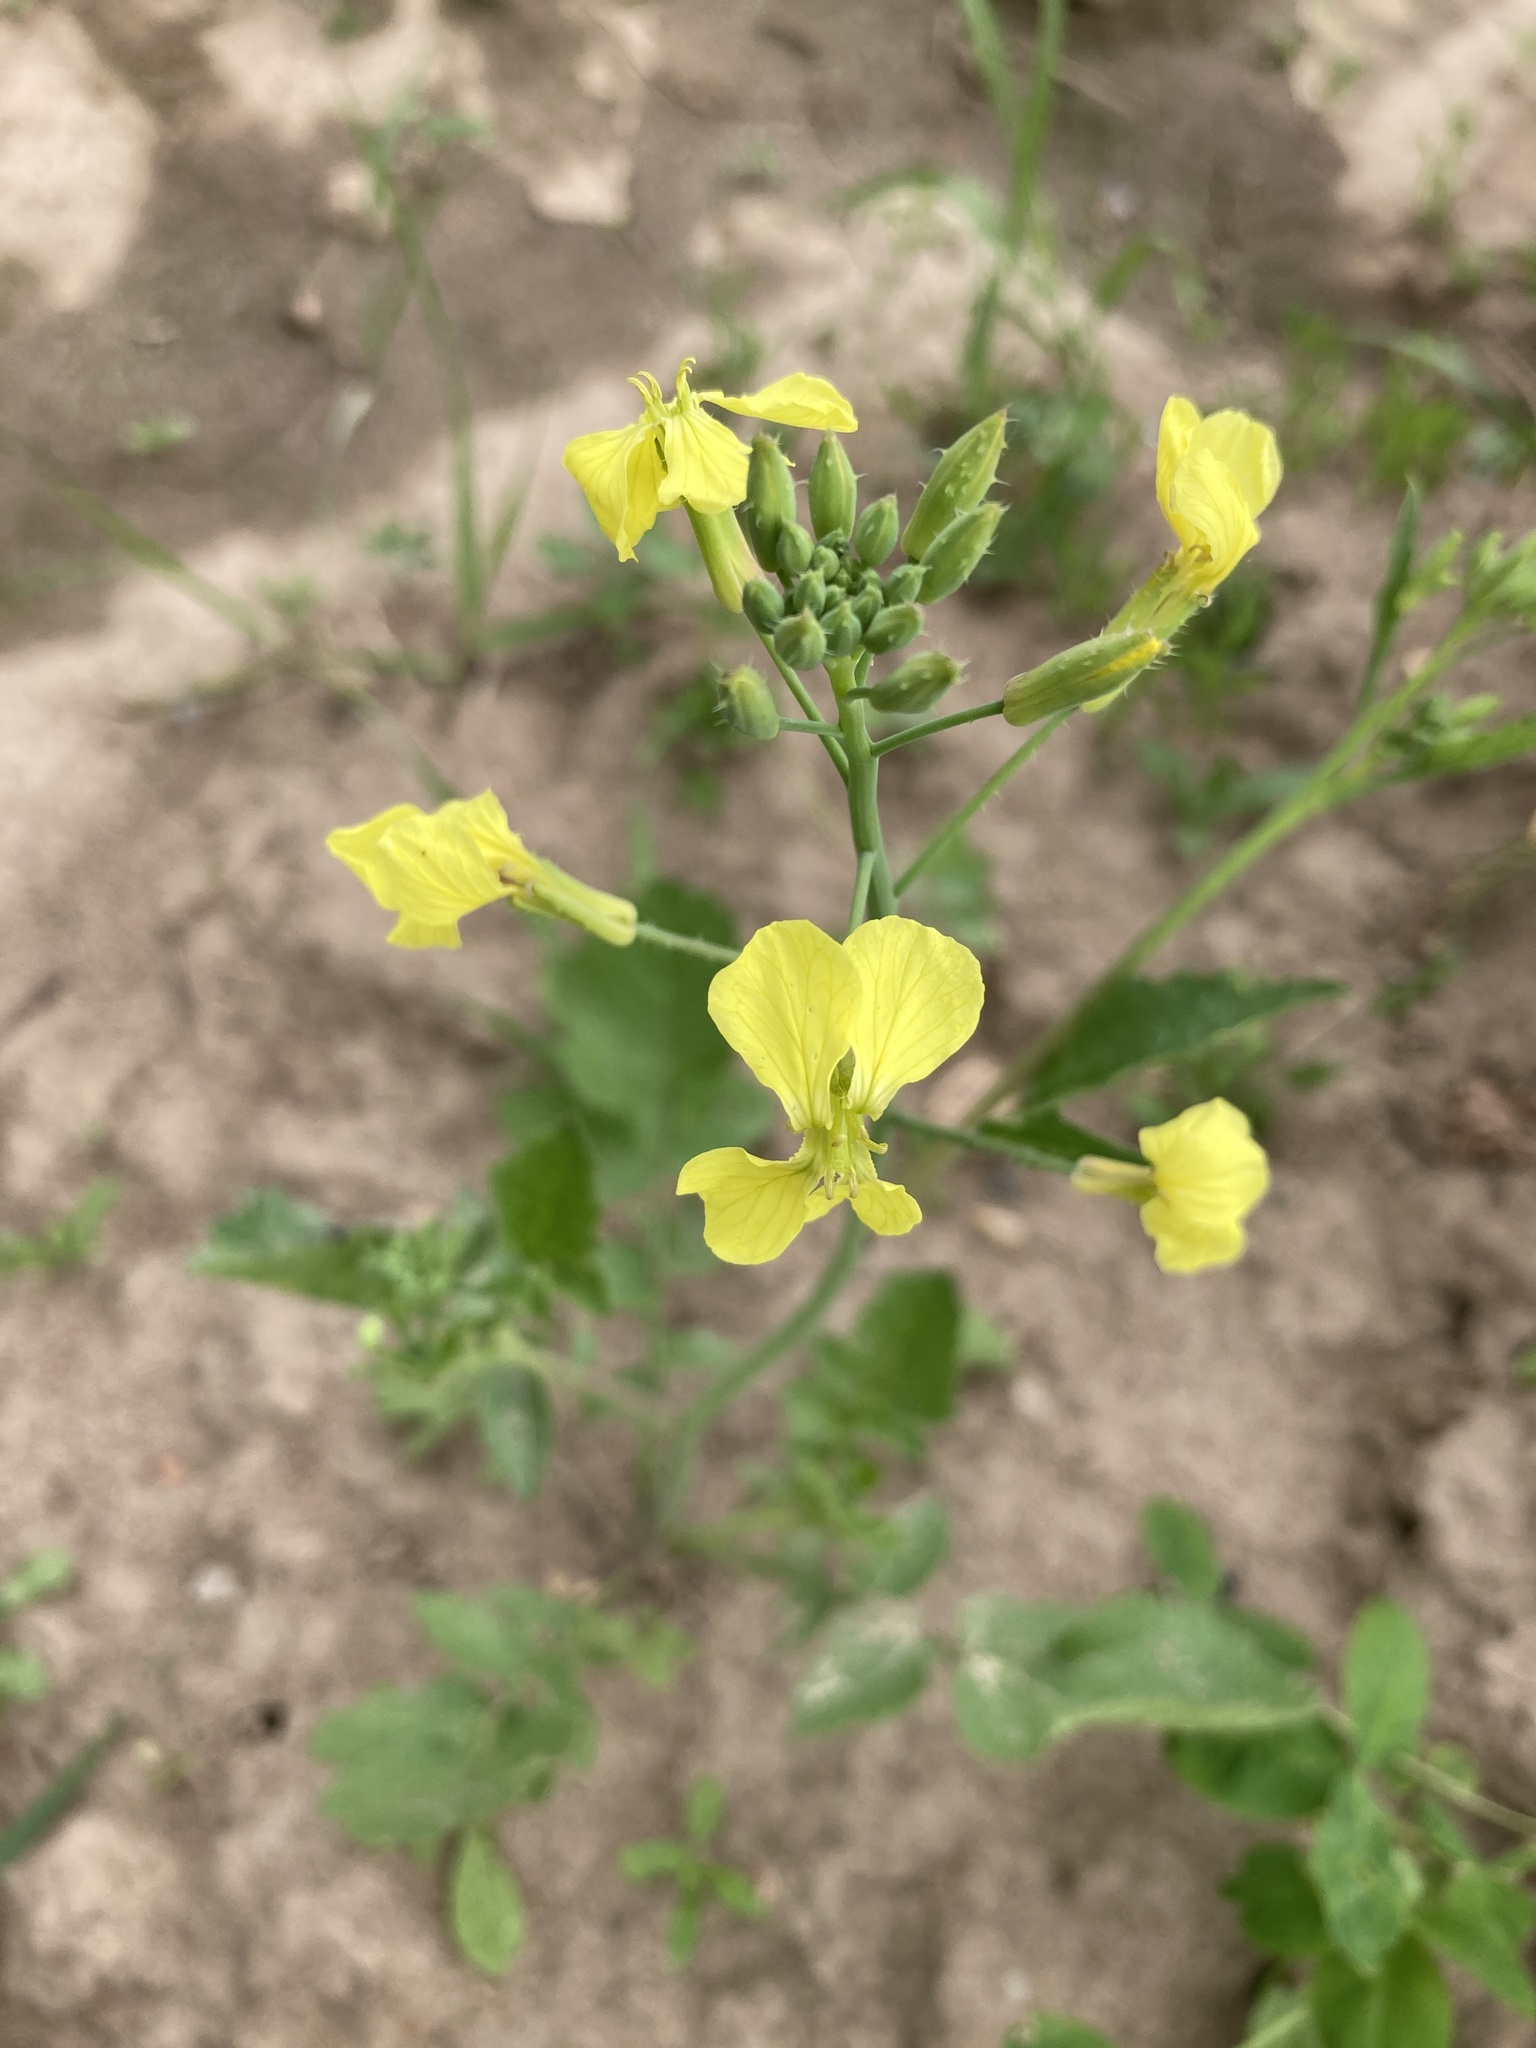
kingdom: Plantae
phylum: Tracheophyta
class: Magnoliopsida
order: Brassicales
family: Brassicaceae
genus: Raphanus
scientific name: Raphanus raphanistrum
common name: Wild radish
